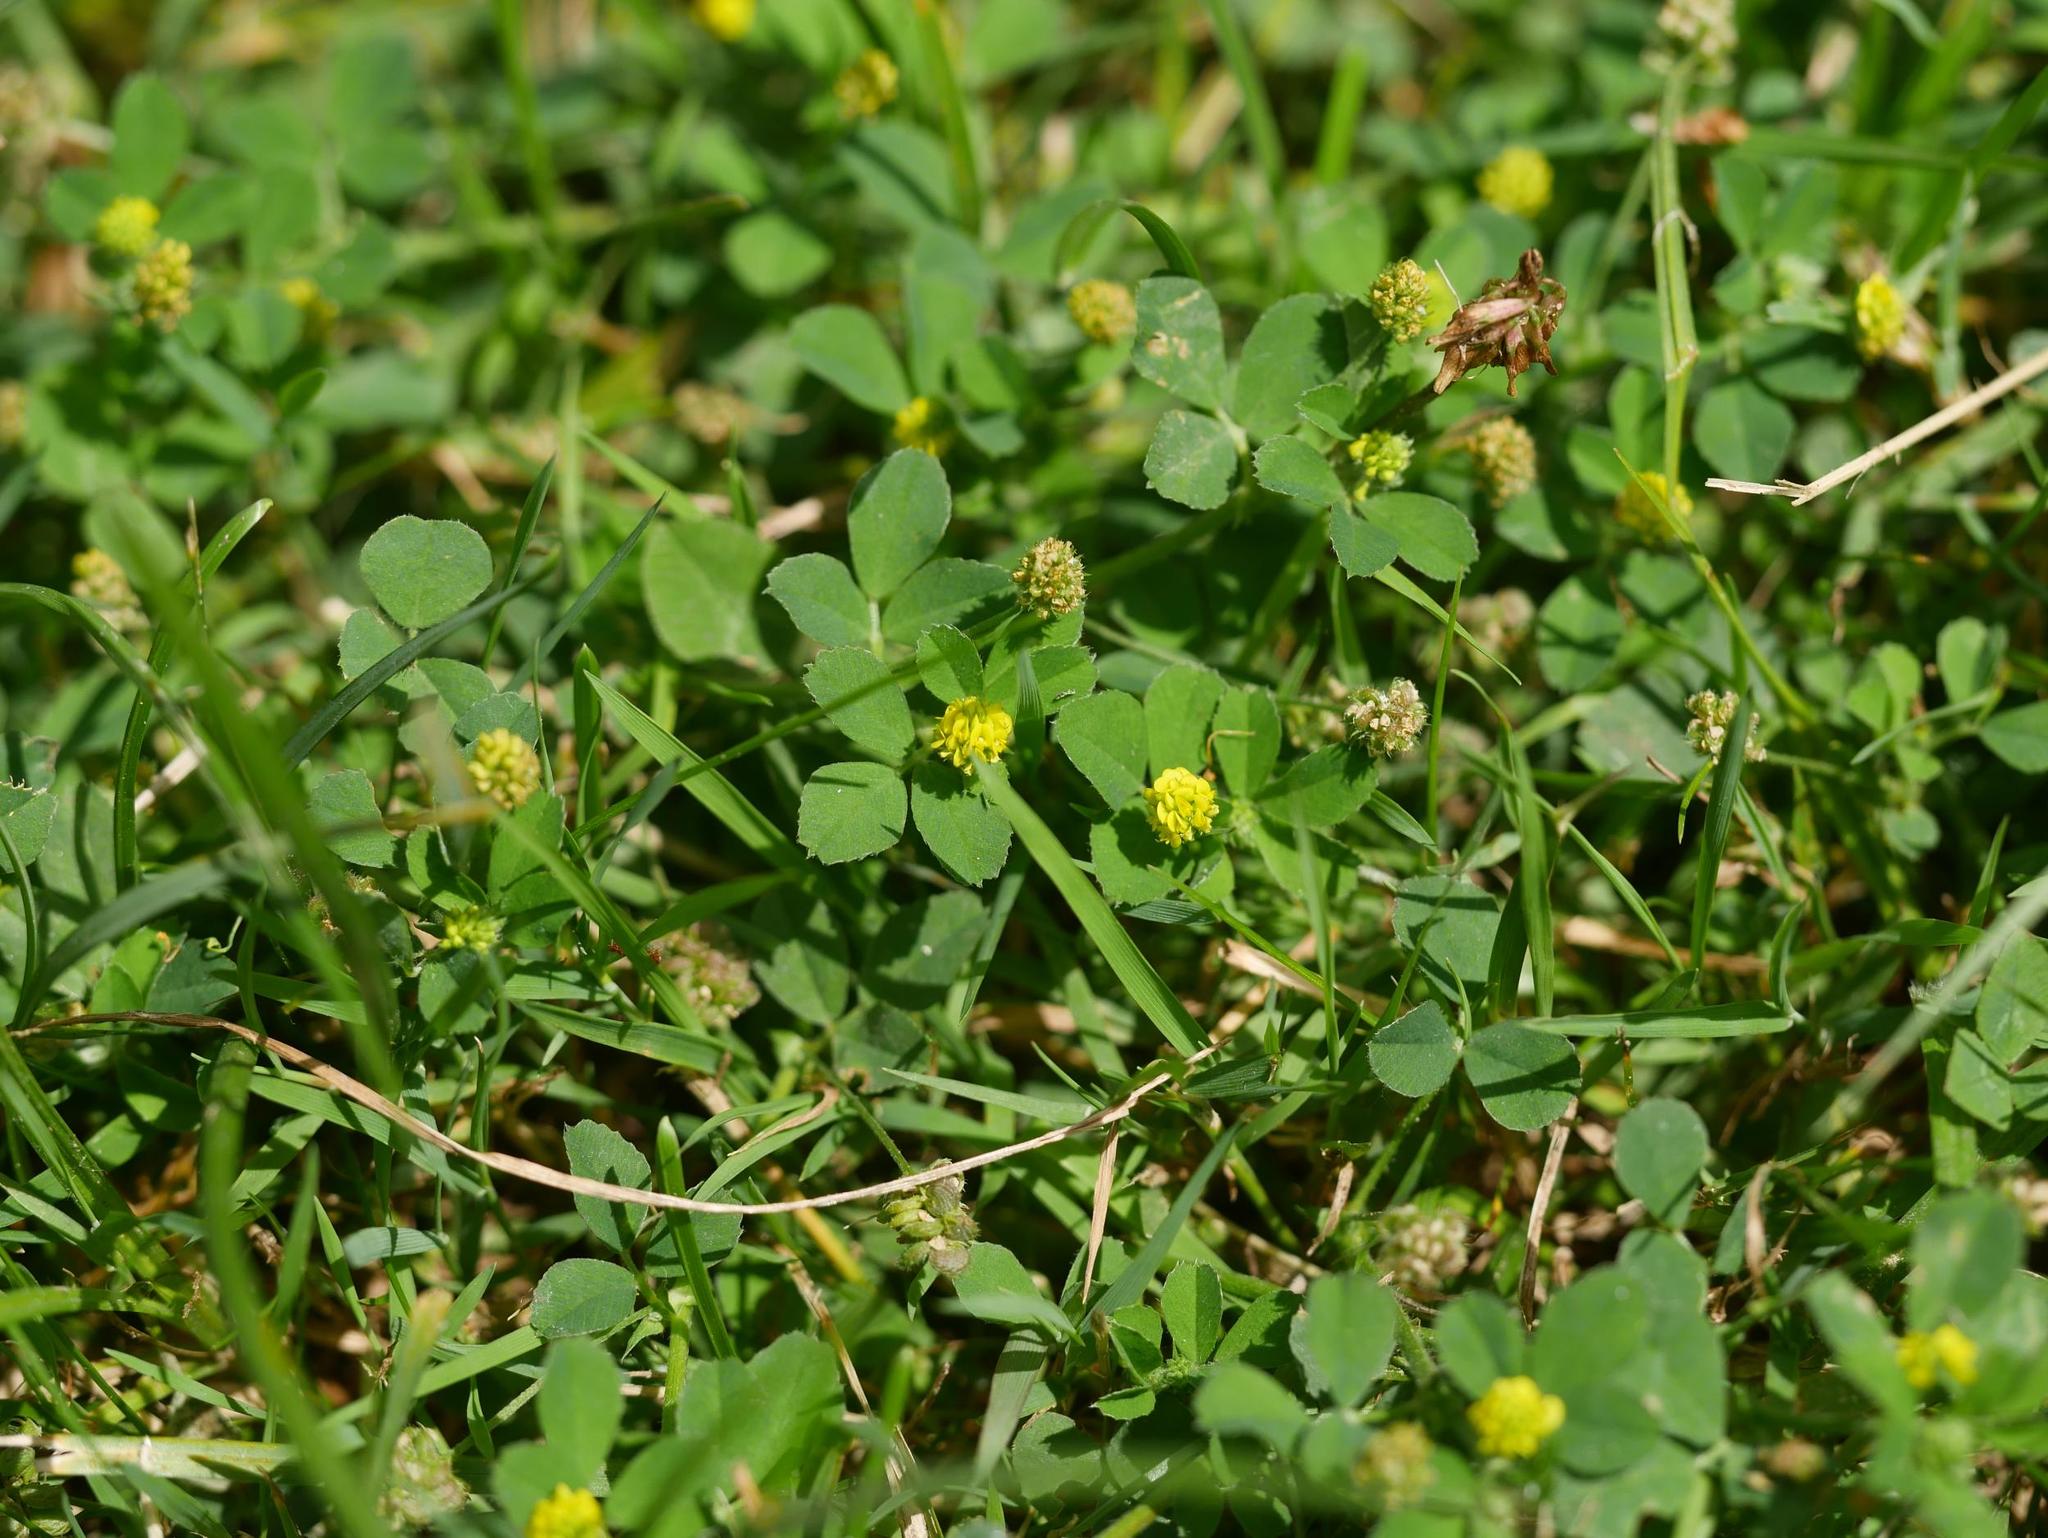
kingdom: Plantae
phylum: Tracheophyta
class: Magnoliopsida
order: Fabales
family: Fabaceae
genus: Medicago
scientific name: Medicago lupulina
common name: Black medick
